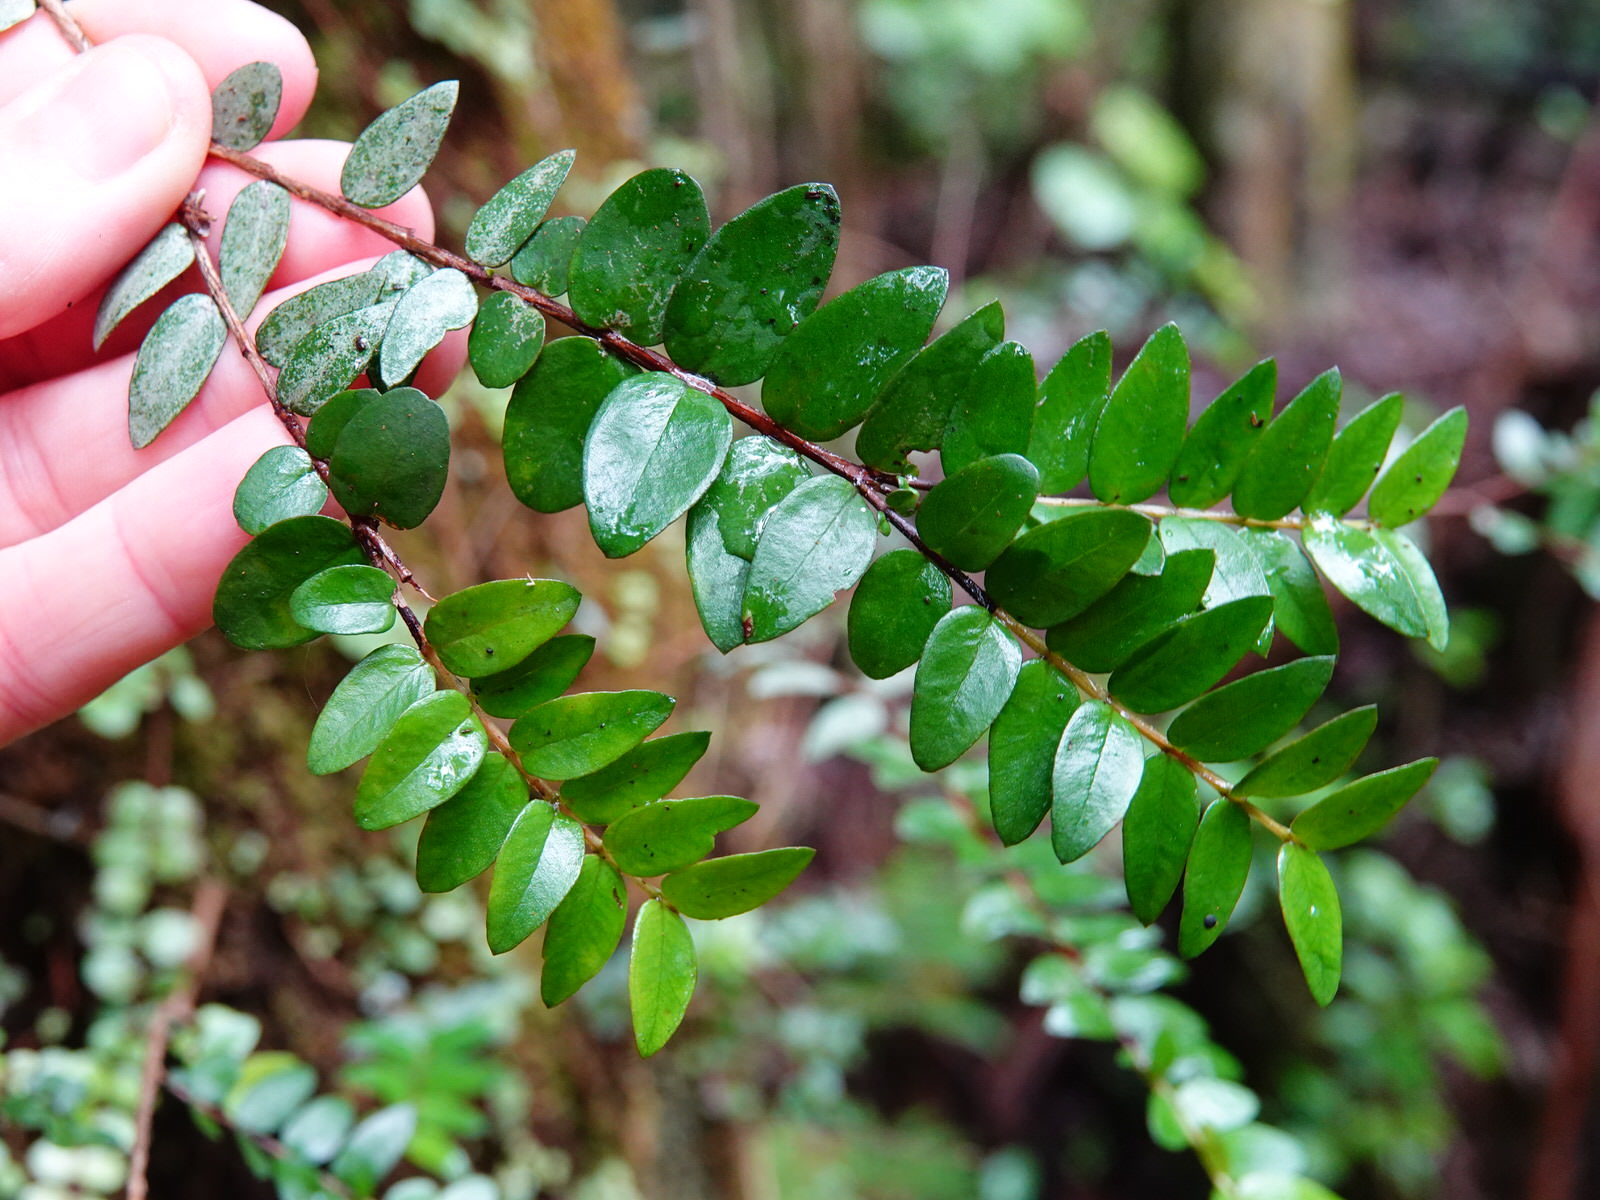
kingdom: Plantae
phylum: Tracheophyta
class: Magnoliopsida
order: Myrtales
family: Myrtaceae
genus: Metrosideros
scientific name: Metrosideros diffusa
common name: Small ratavine
